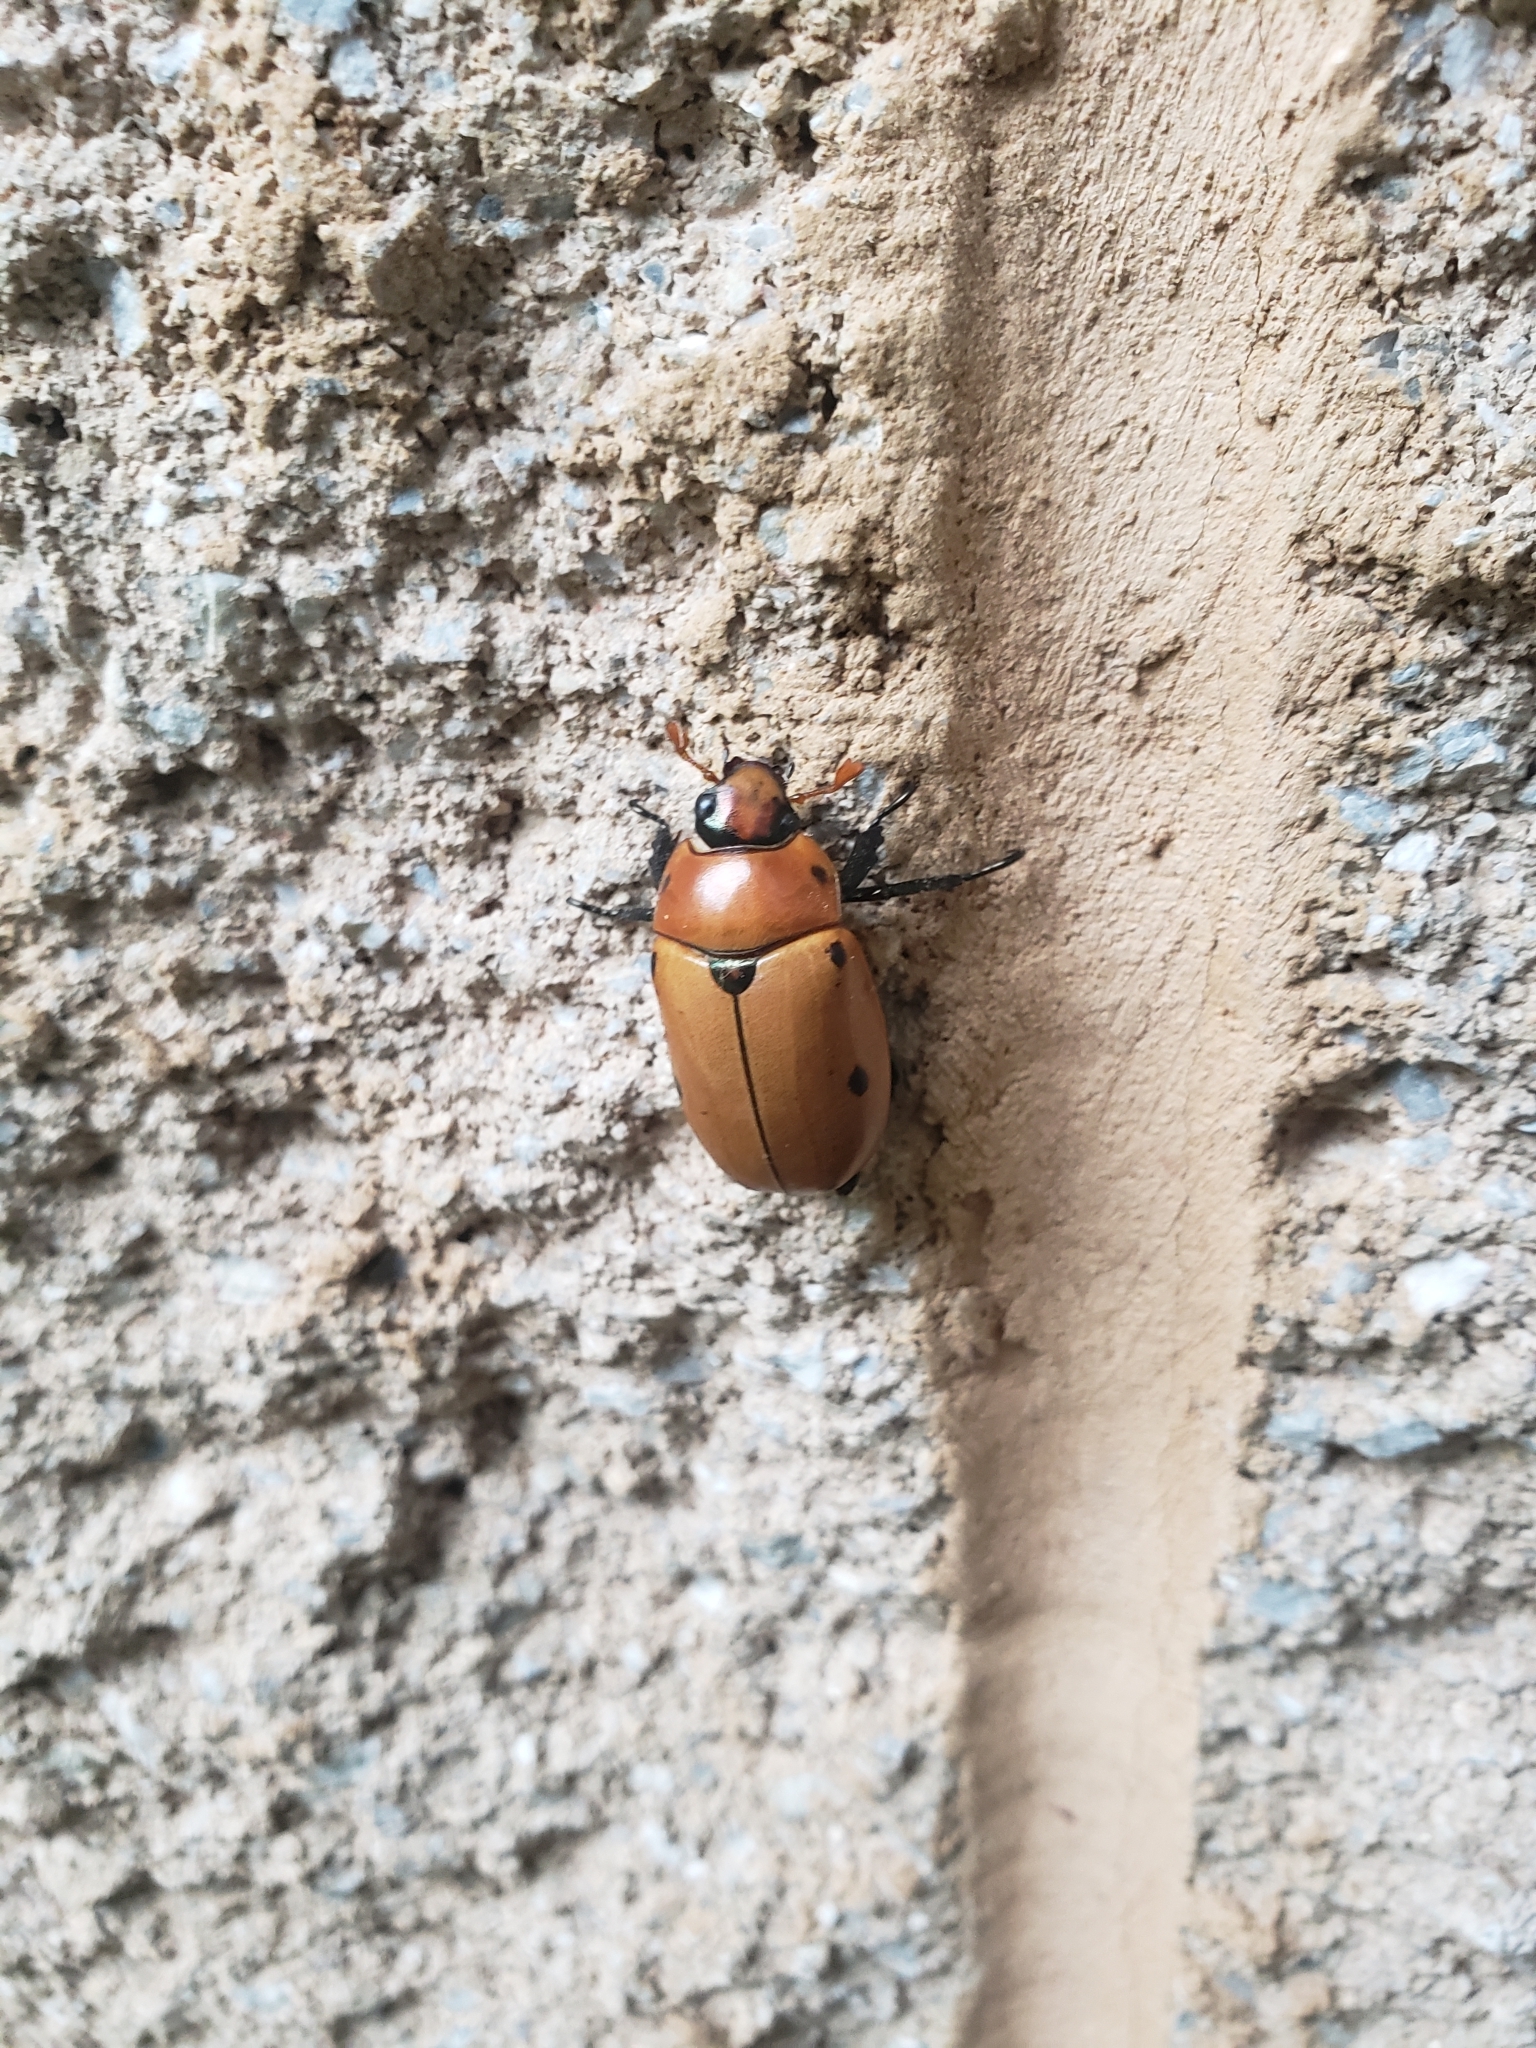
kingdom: Animalia
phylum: Arthropoda
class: Insecta
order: Coleoptera
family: Scarabaeidae
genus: Pelidnota
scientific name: Pelidnota punctata
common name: Grapevine beetle
